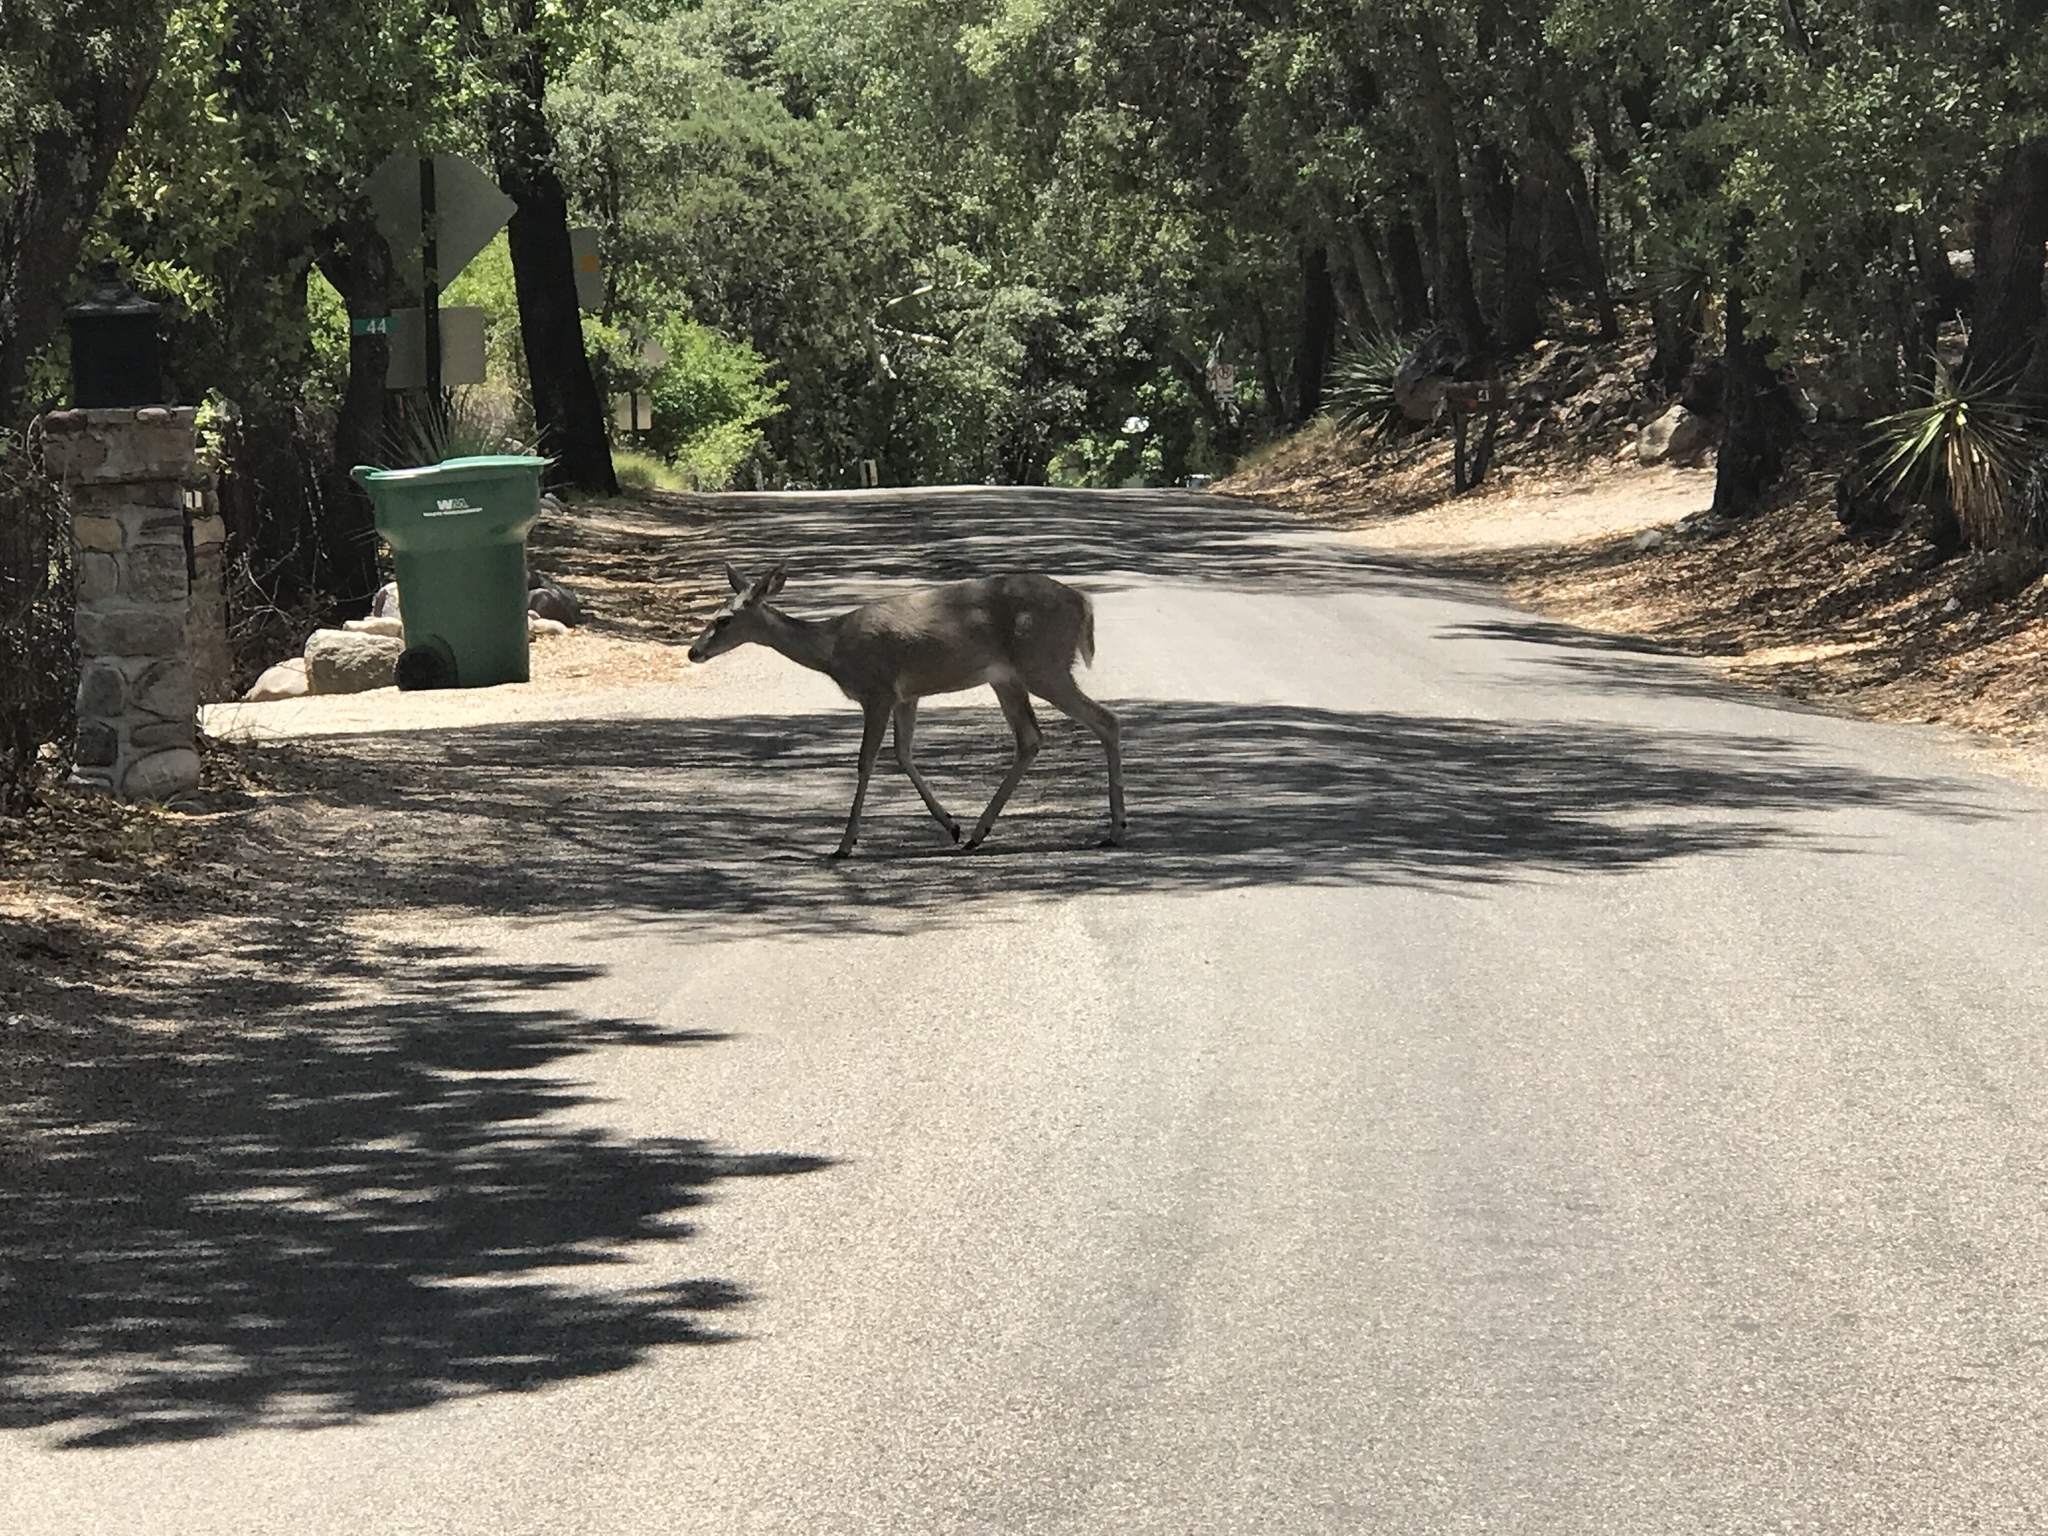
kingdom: Animalia
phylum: Chordata
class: Mammalia
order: Artiodactyla
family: Cervidae
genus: Odocoileus
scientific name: Odocoileus virginianus
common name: White-tailed deer
